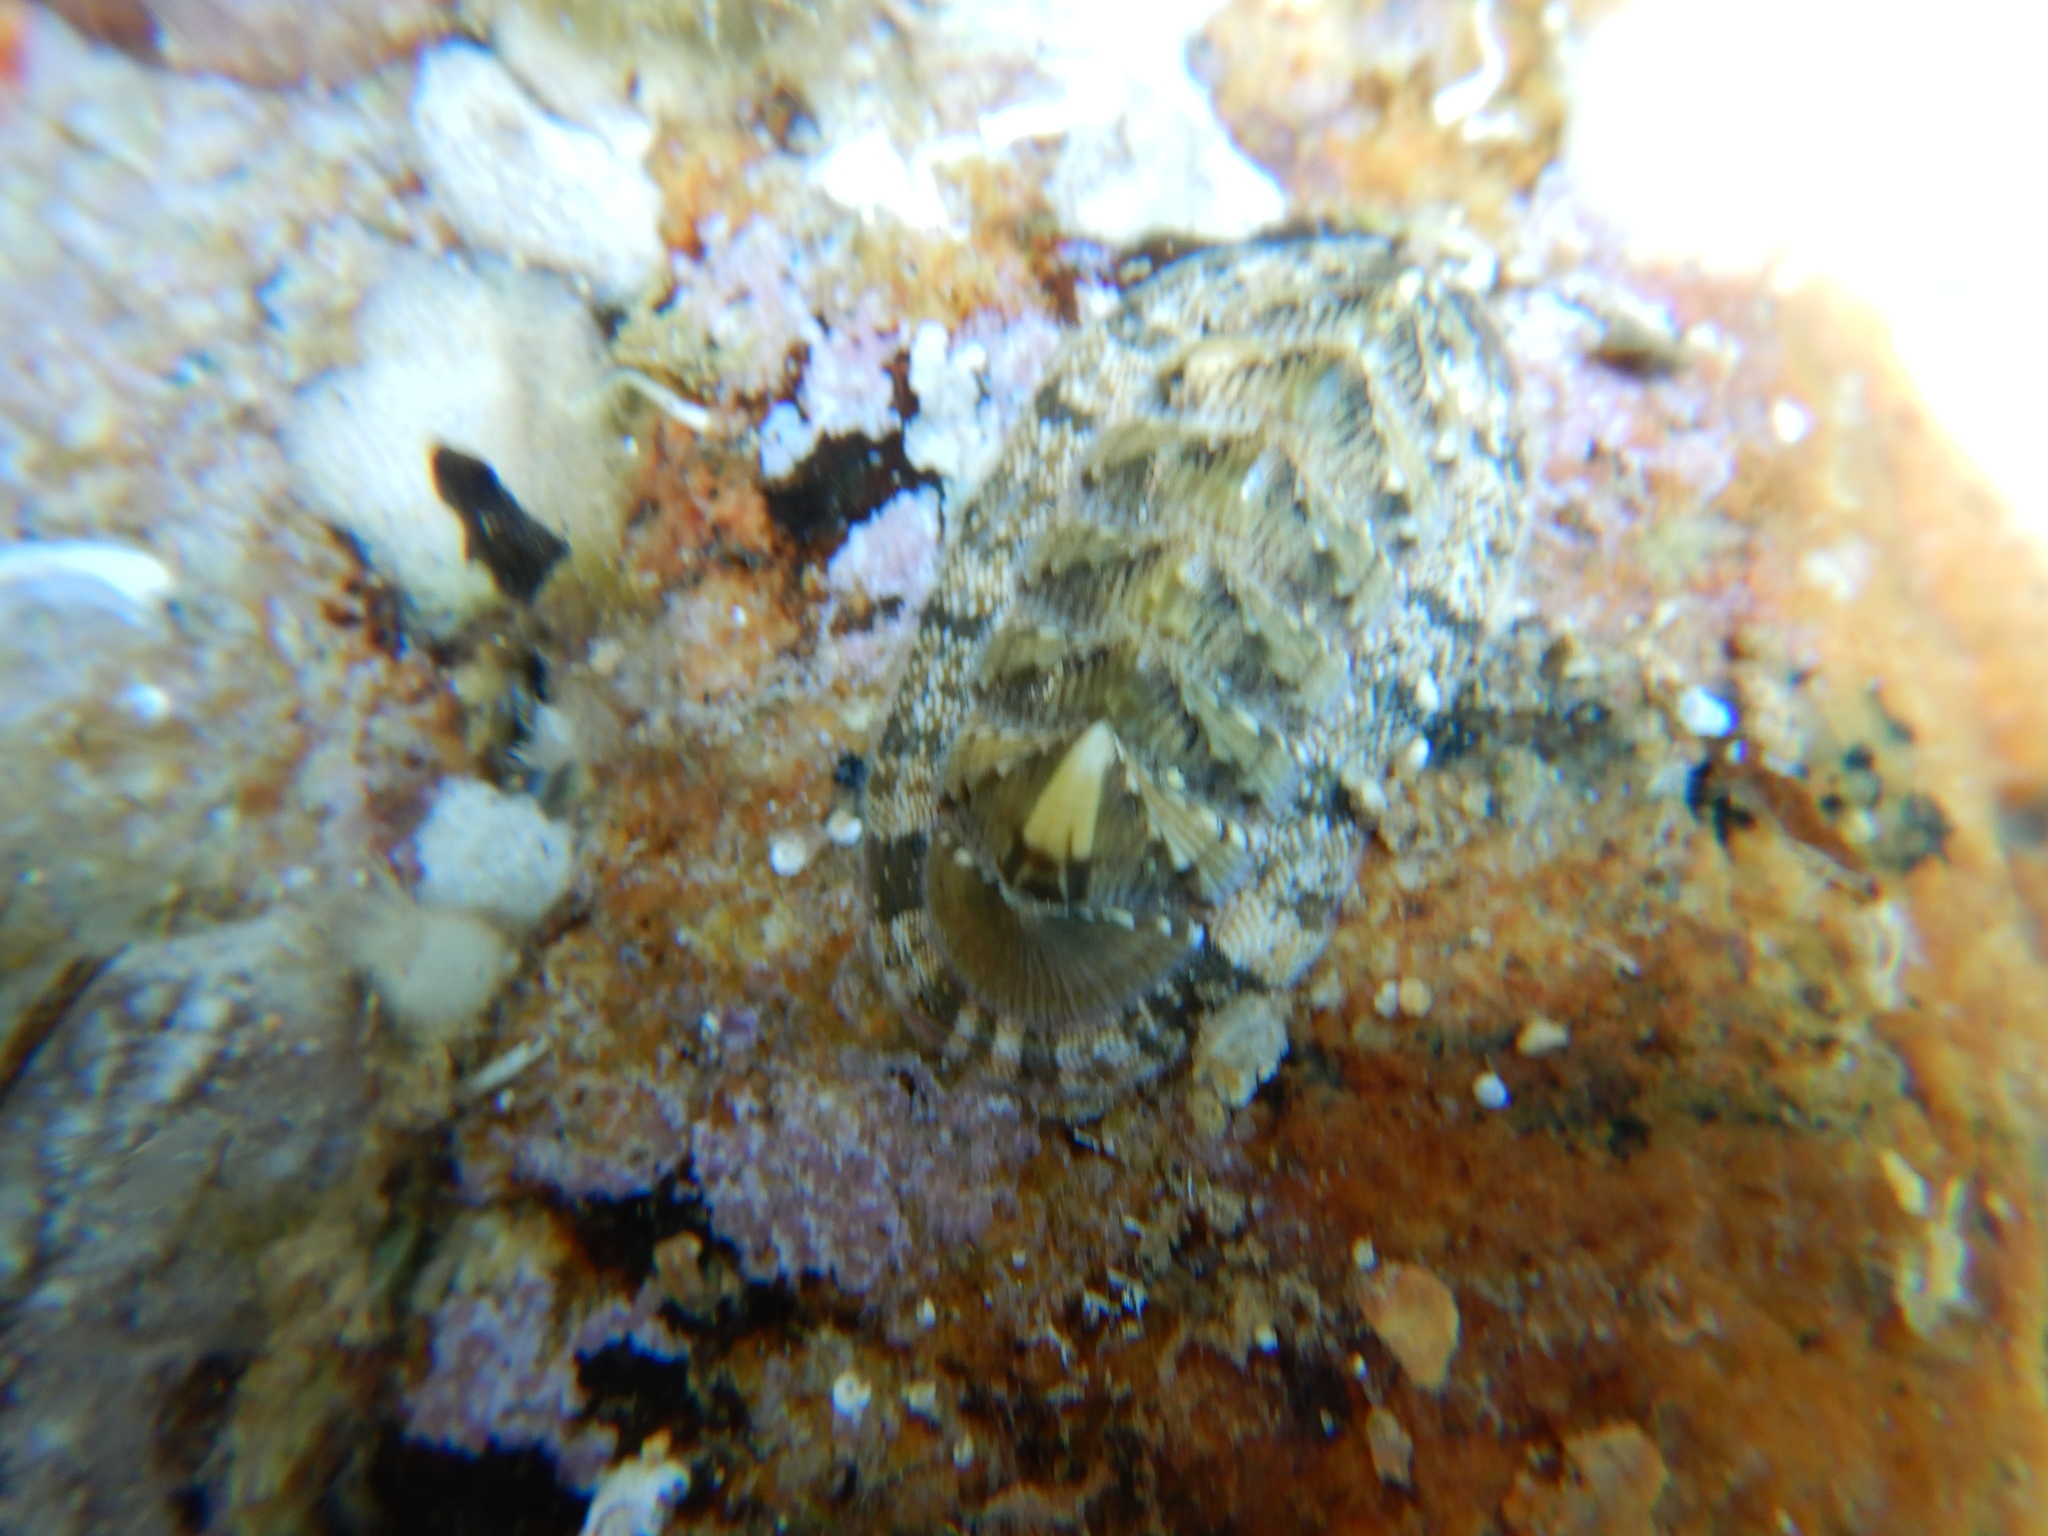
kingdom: Animalia
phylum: Mollusca
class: Polyplacophora
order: Chitonida
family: Chitonidae
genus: Rhyssoplax
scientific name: Rhyssoplax olivacea
